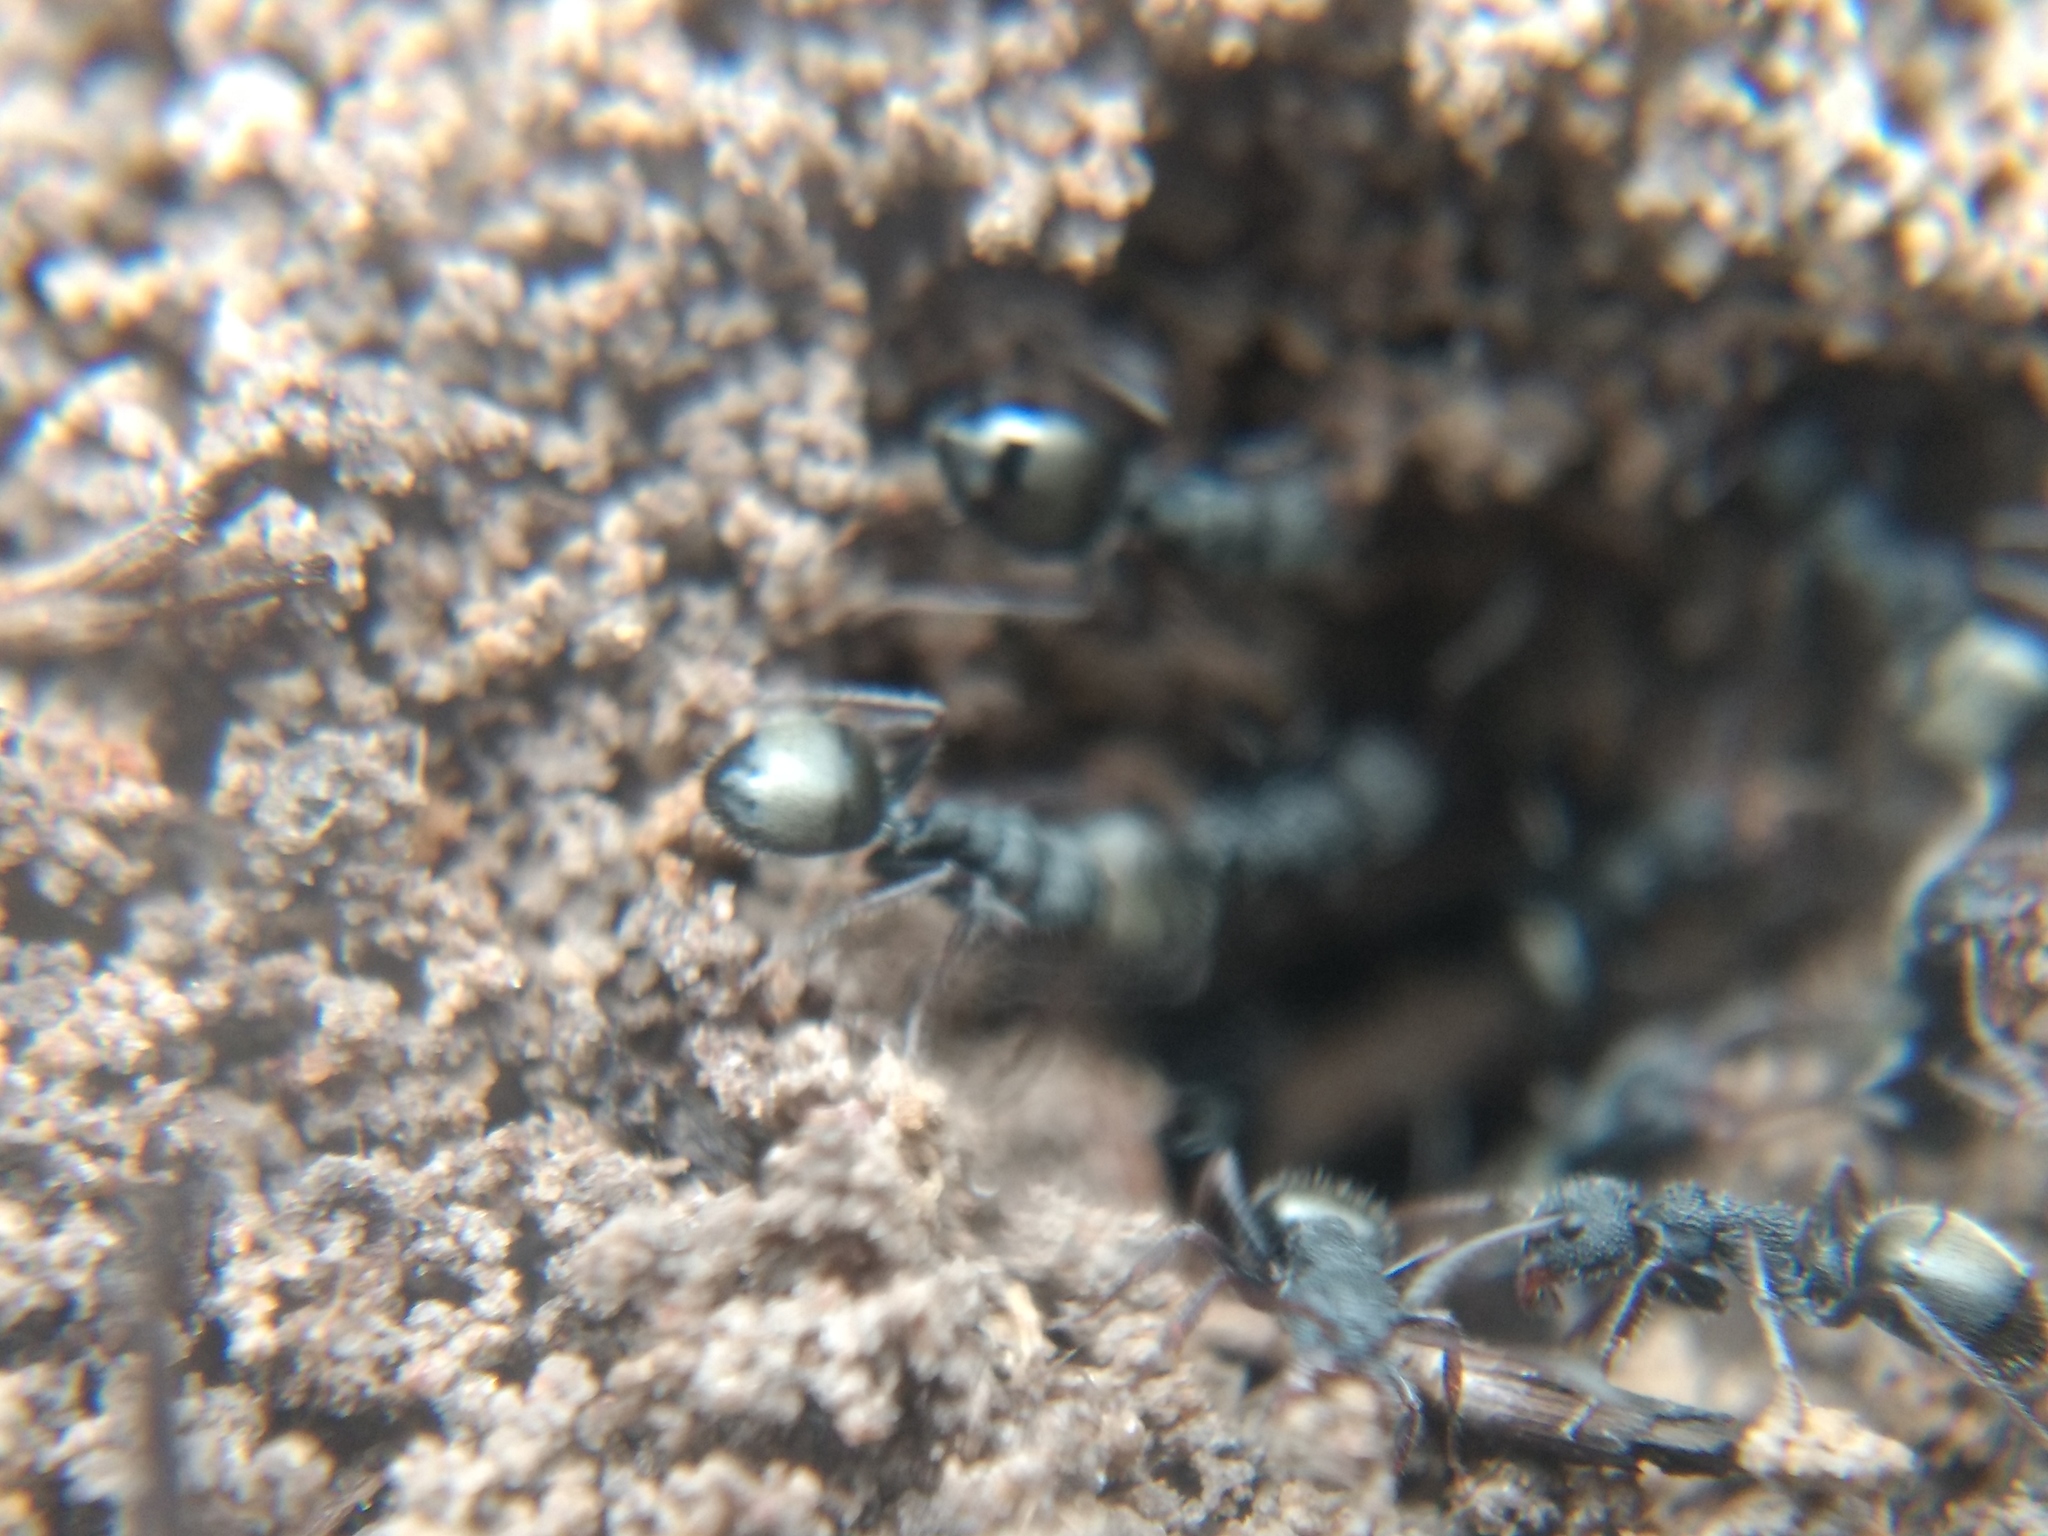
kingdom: Animalia
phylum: Arthropoda
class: Insecta
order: Hymenoptera
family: Formicidae
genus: Dolichoderus
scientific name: Dolichoderus scrobiculatus
